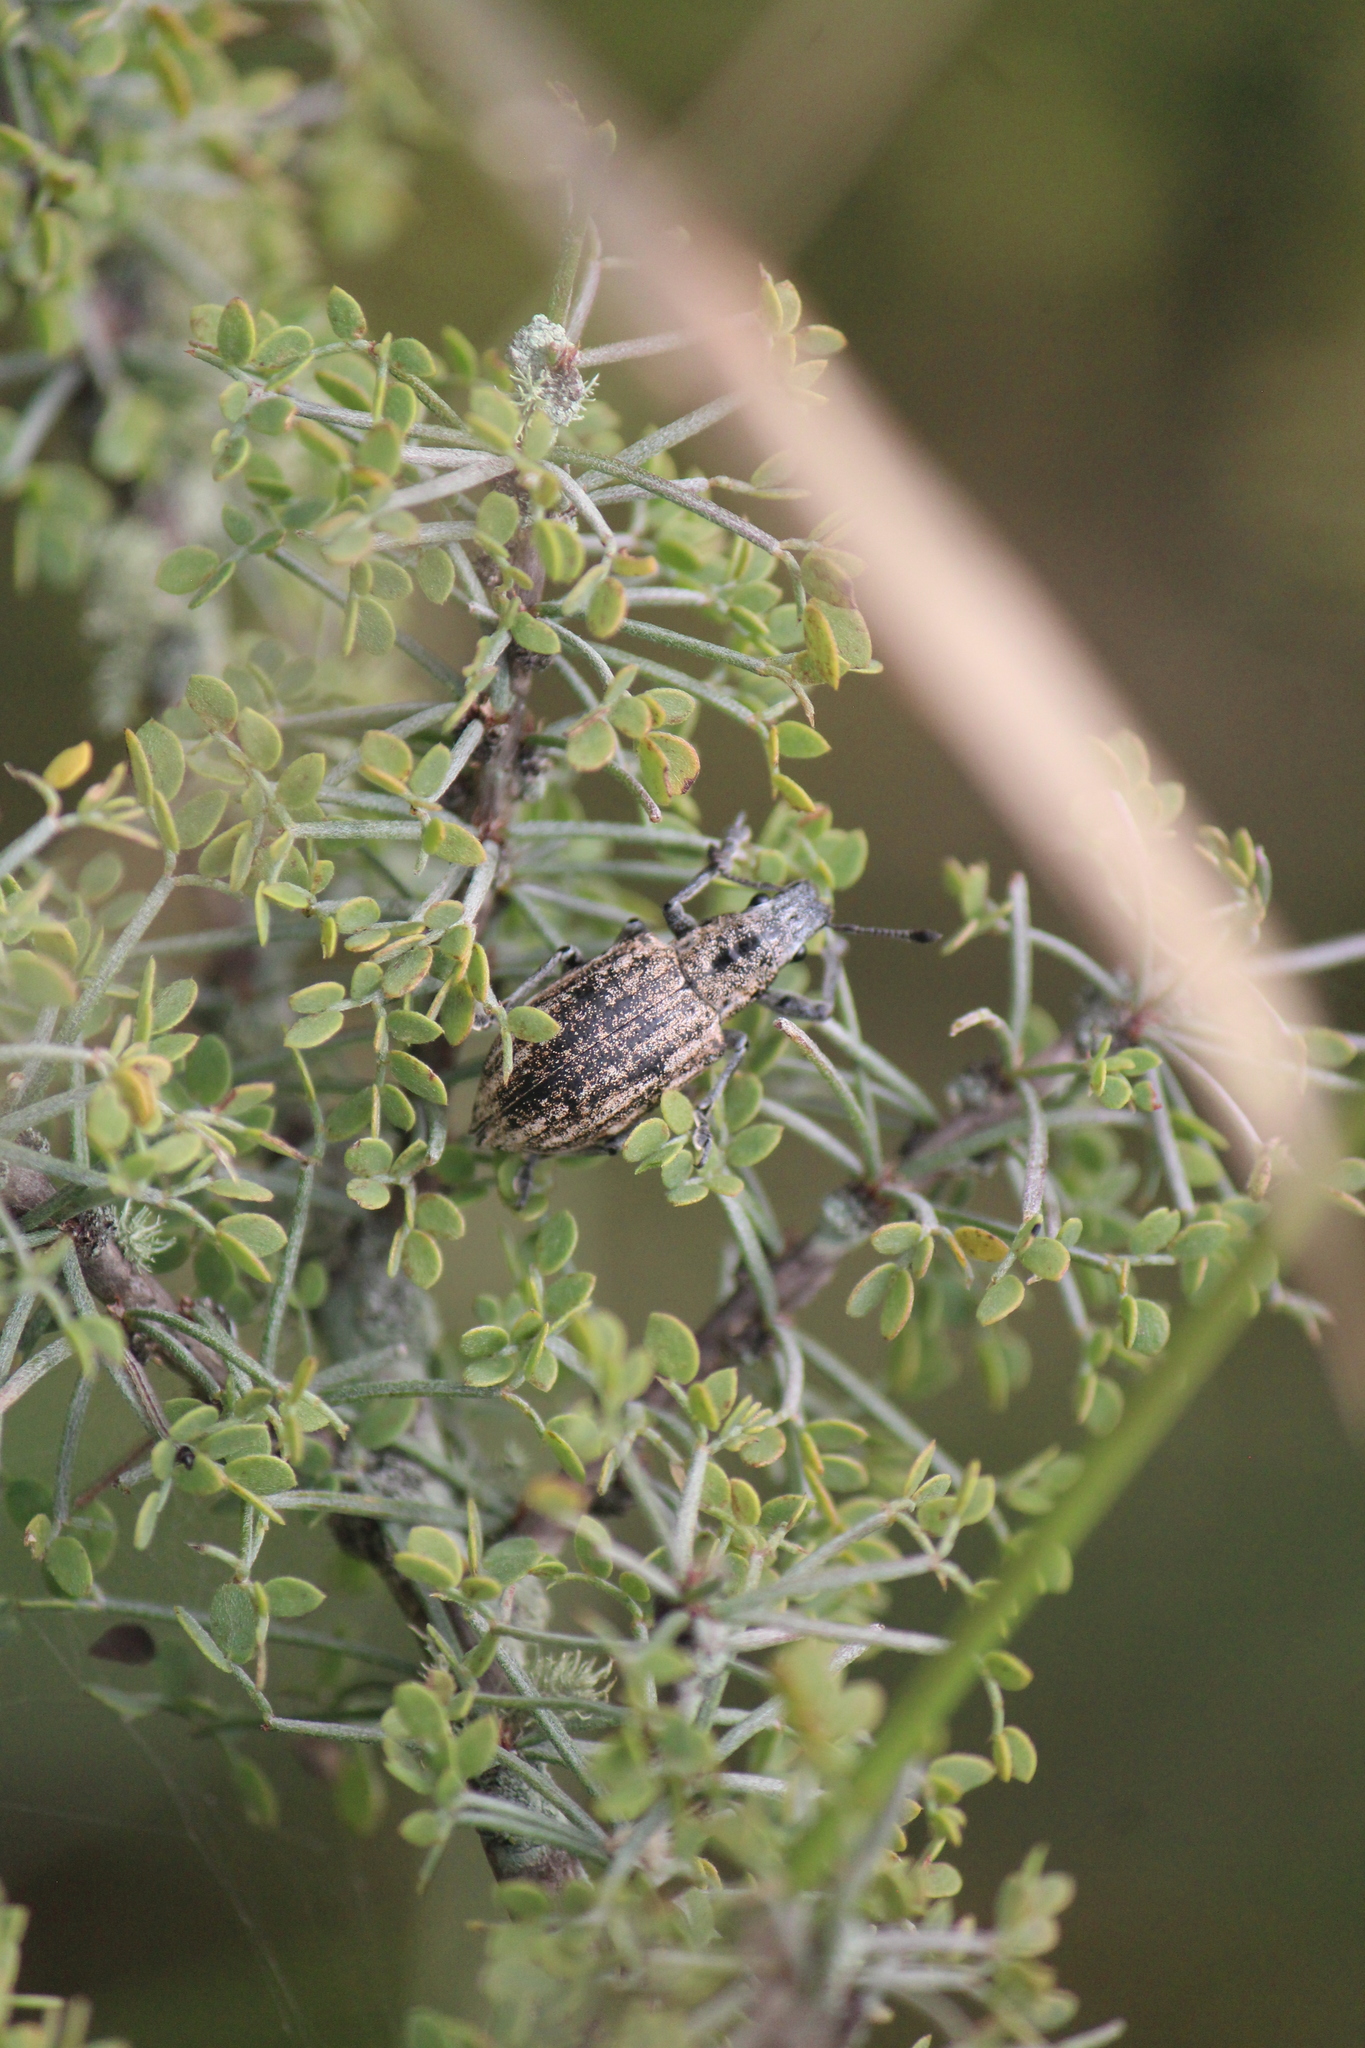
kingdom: Animalia
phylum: Arthropoda
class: Insecta
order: Coleoptera
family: Curculionidae
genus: Ericydeus
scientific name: Ericydeus viridans
